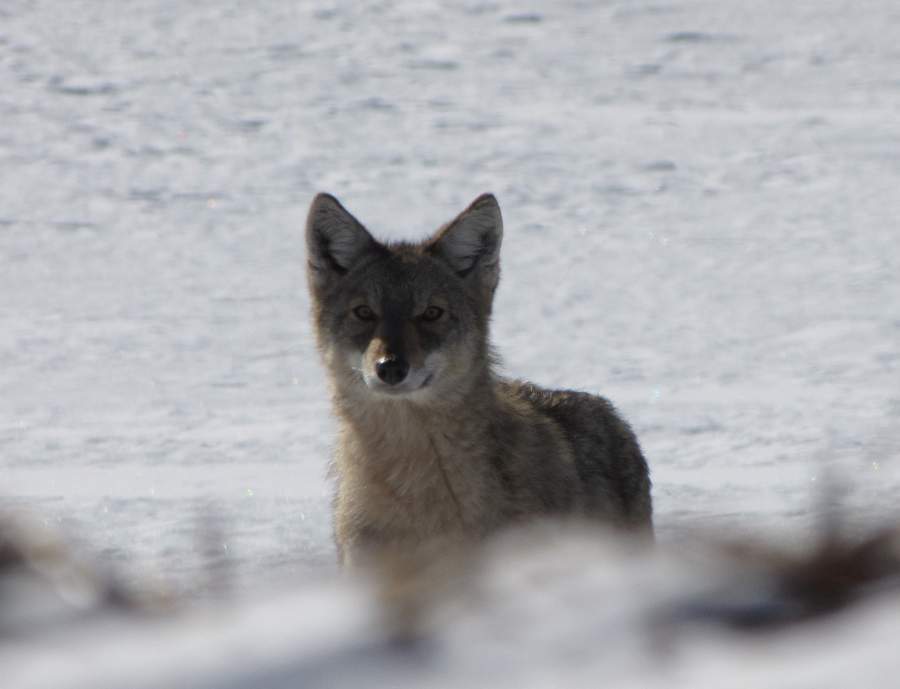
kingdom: Animalia
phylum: Chordata
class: Mammalia
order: Carnivora
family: Canidae
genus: Canis
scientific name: Canis latrans
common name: Coyote
